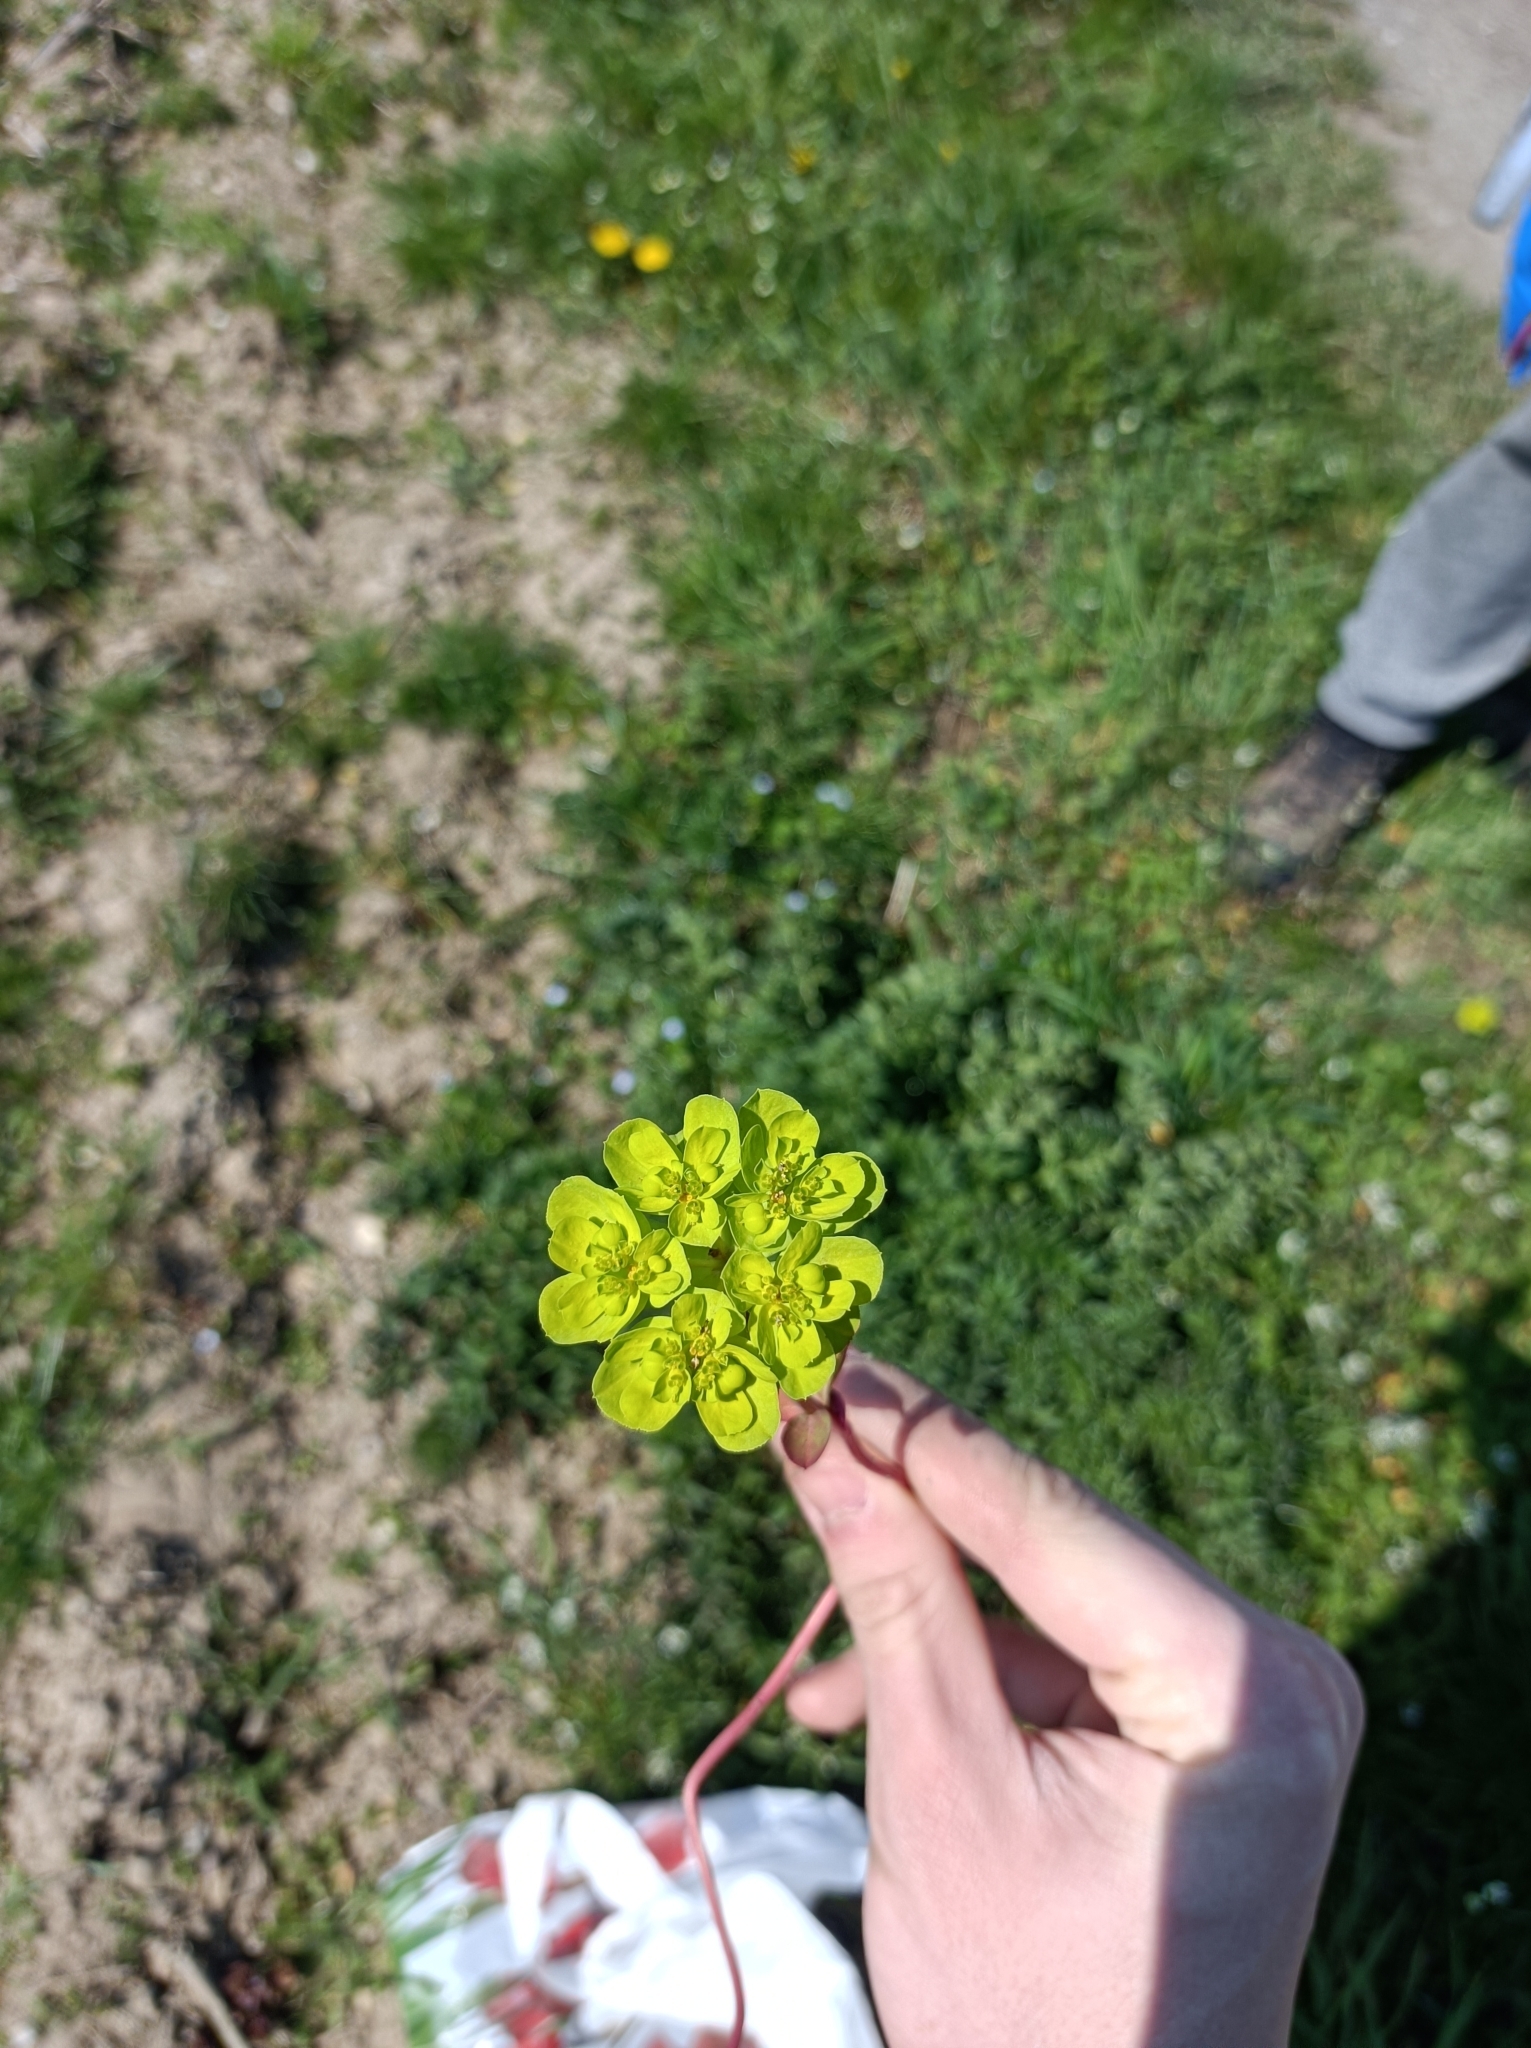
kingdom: Plantae
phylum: Tracheophyta
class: Magnoliopsida
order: Malpighiales
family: Euphorbiaceae
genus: Euphorbia
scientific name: Euphorbia helioscopia
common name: Sun spurge
